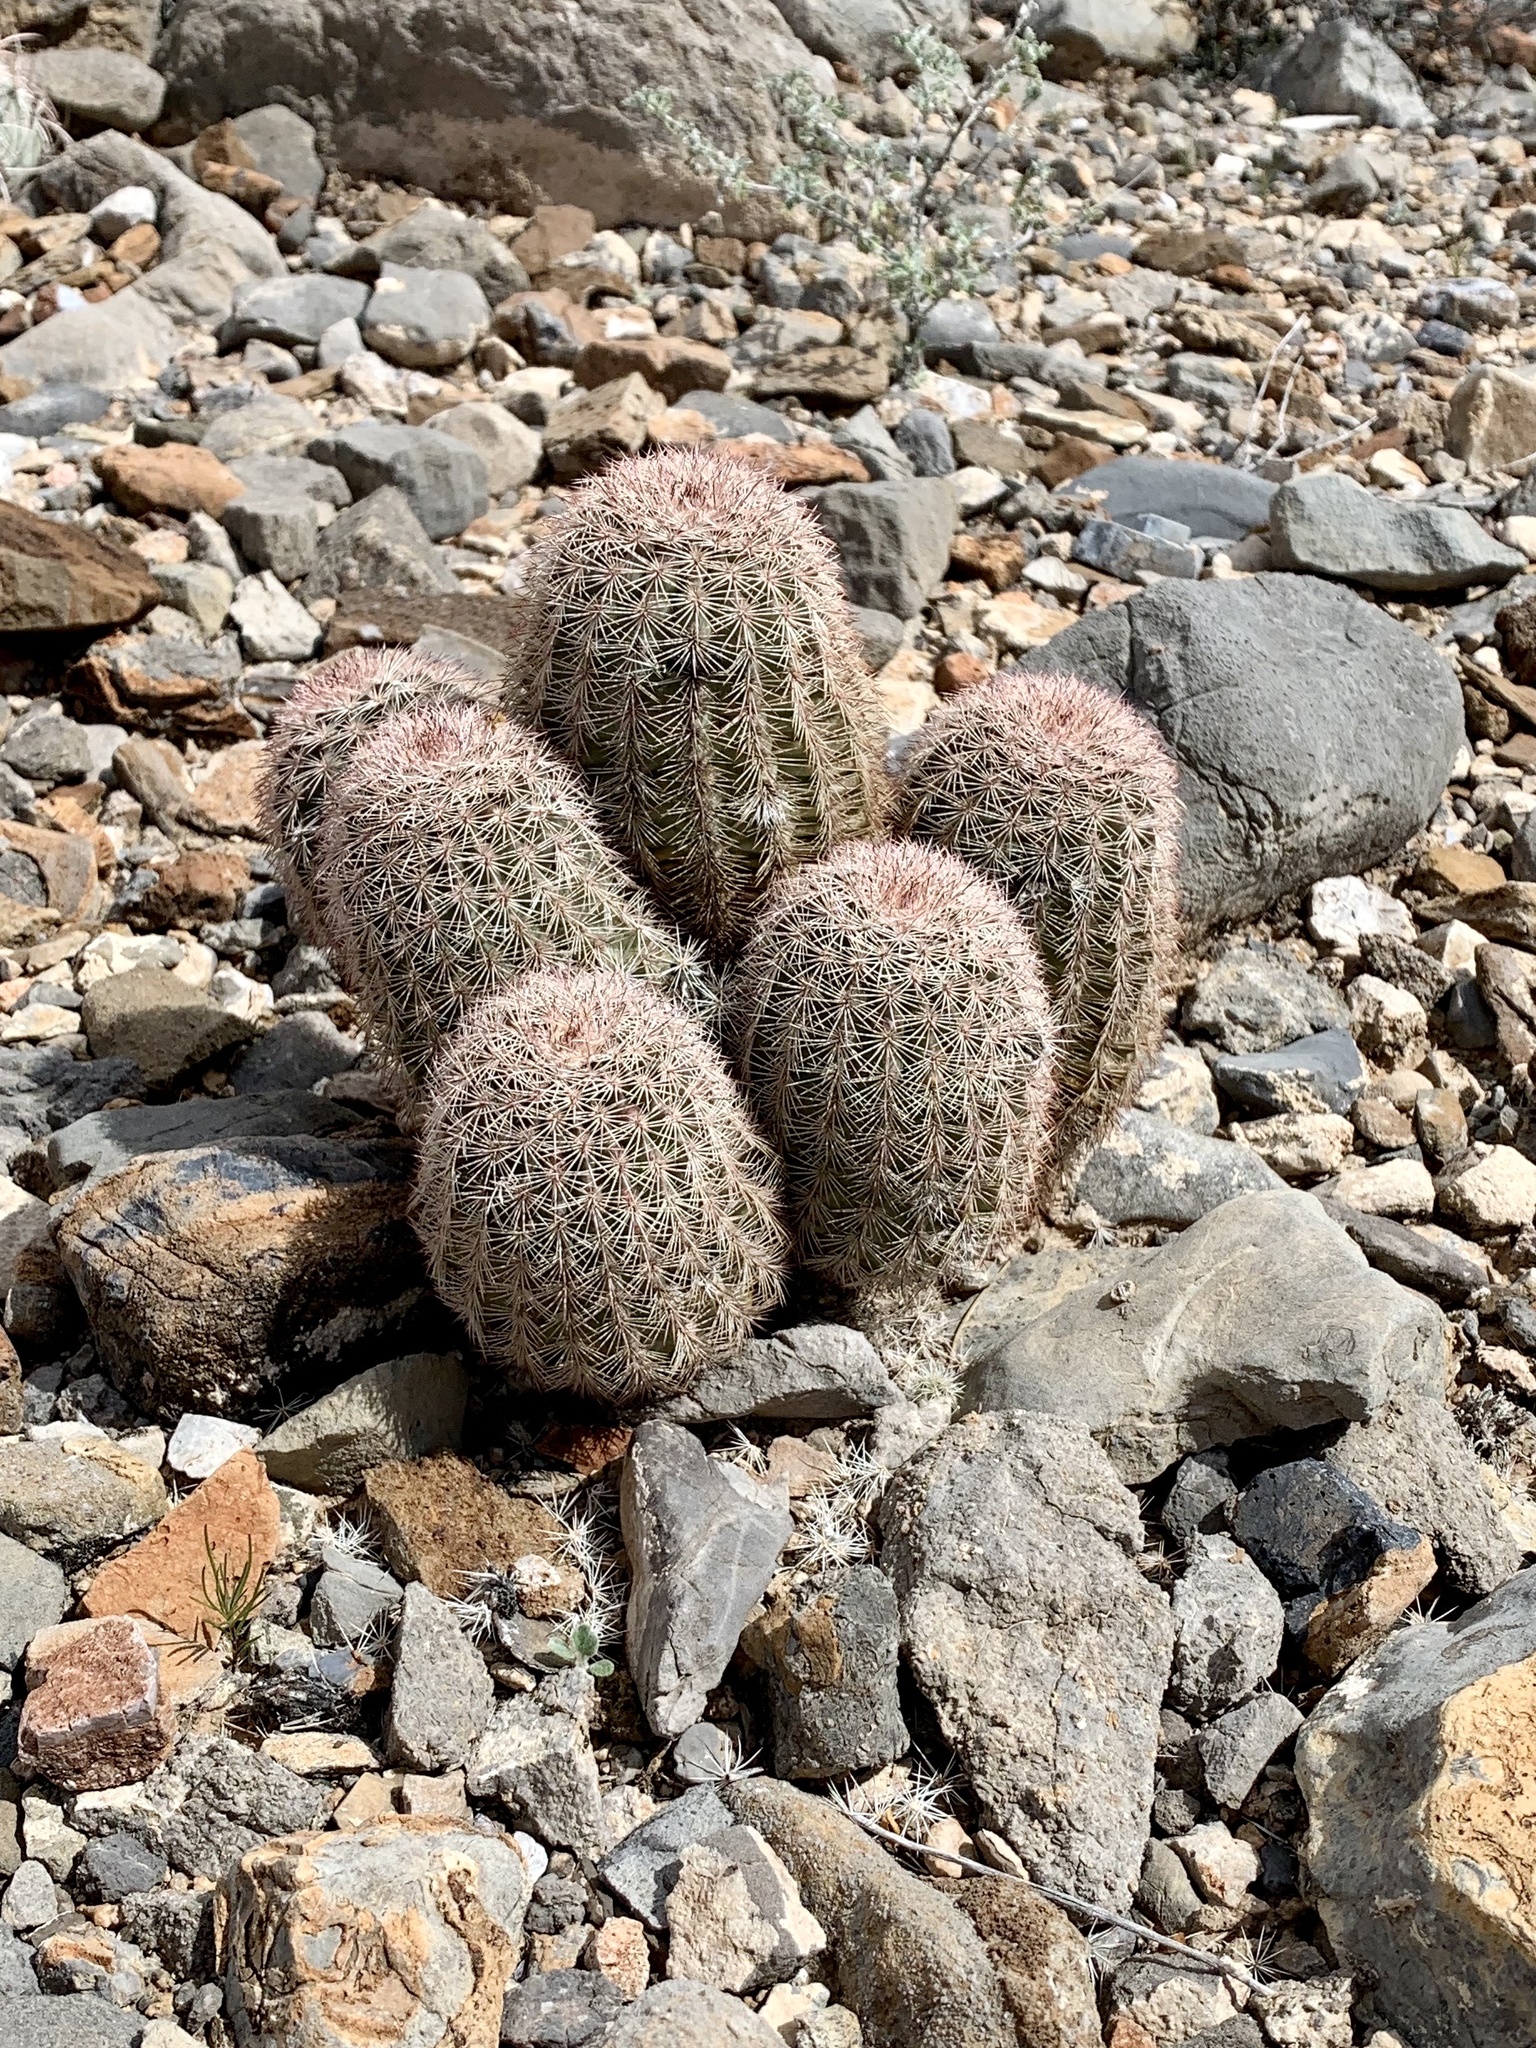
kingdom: Plantae
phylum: Tracheophyta
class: Magnoliopsida
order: Caryophyllales
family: Cactaceae
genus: Echinocereus
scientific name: Echinocereus dasyacanthus
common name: Spiny hedgehog cactus
